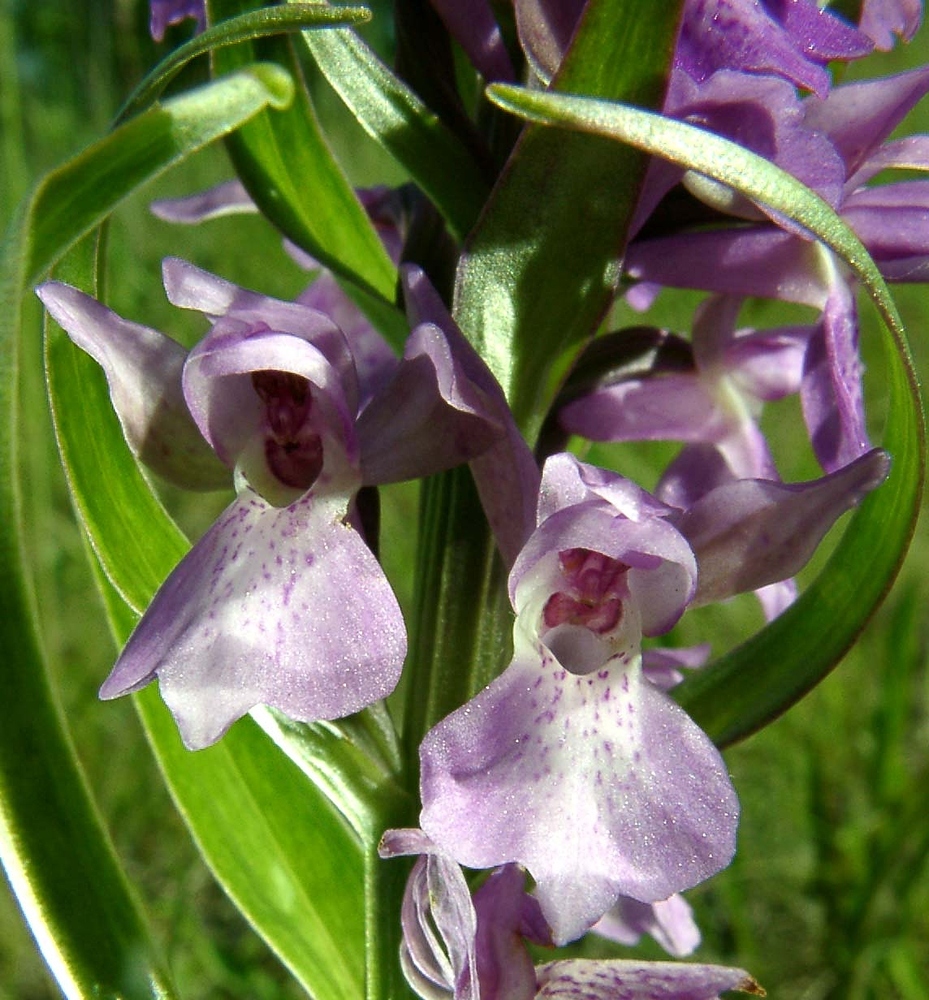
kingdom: Plantae
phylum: Tracheophyta
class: Liliopsida
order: Asparagales
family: Orchidaceae
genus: Dactylorhiza
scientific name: Dactylorhiza majalis
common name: Marsh orchid
